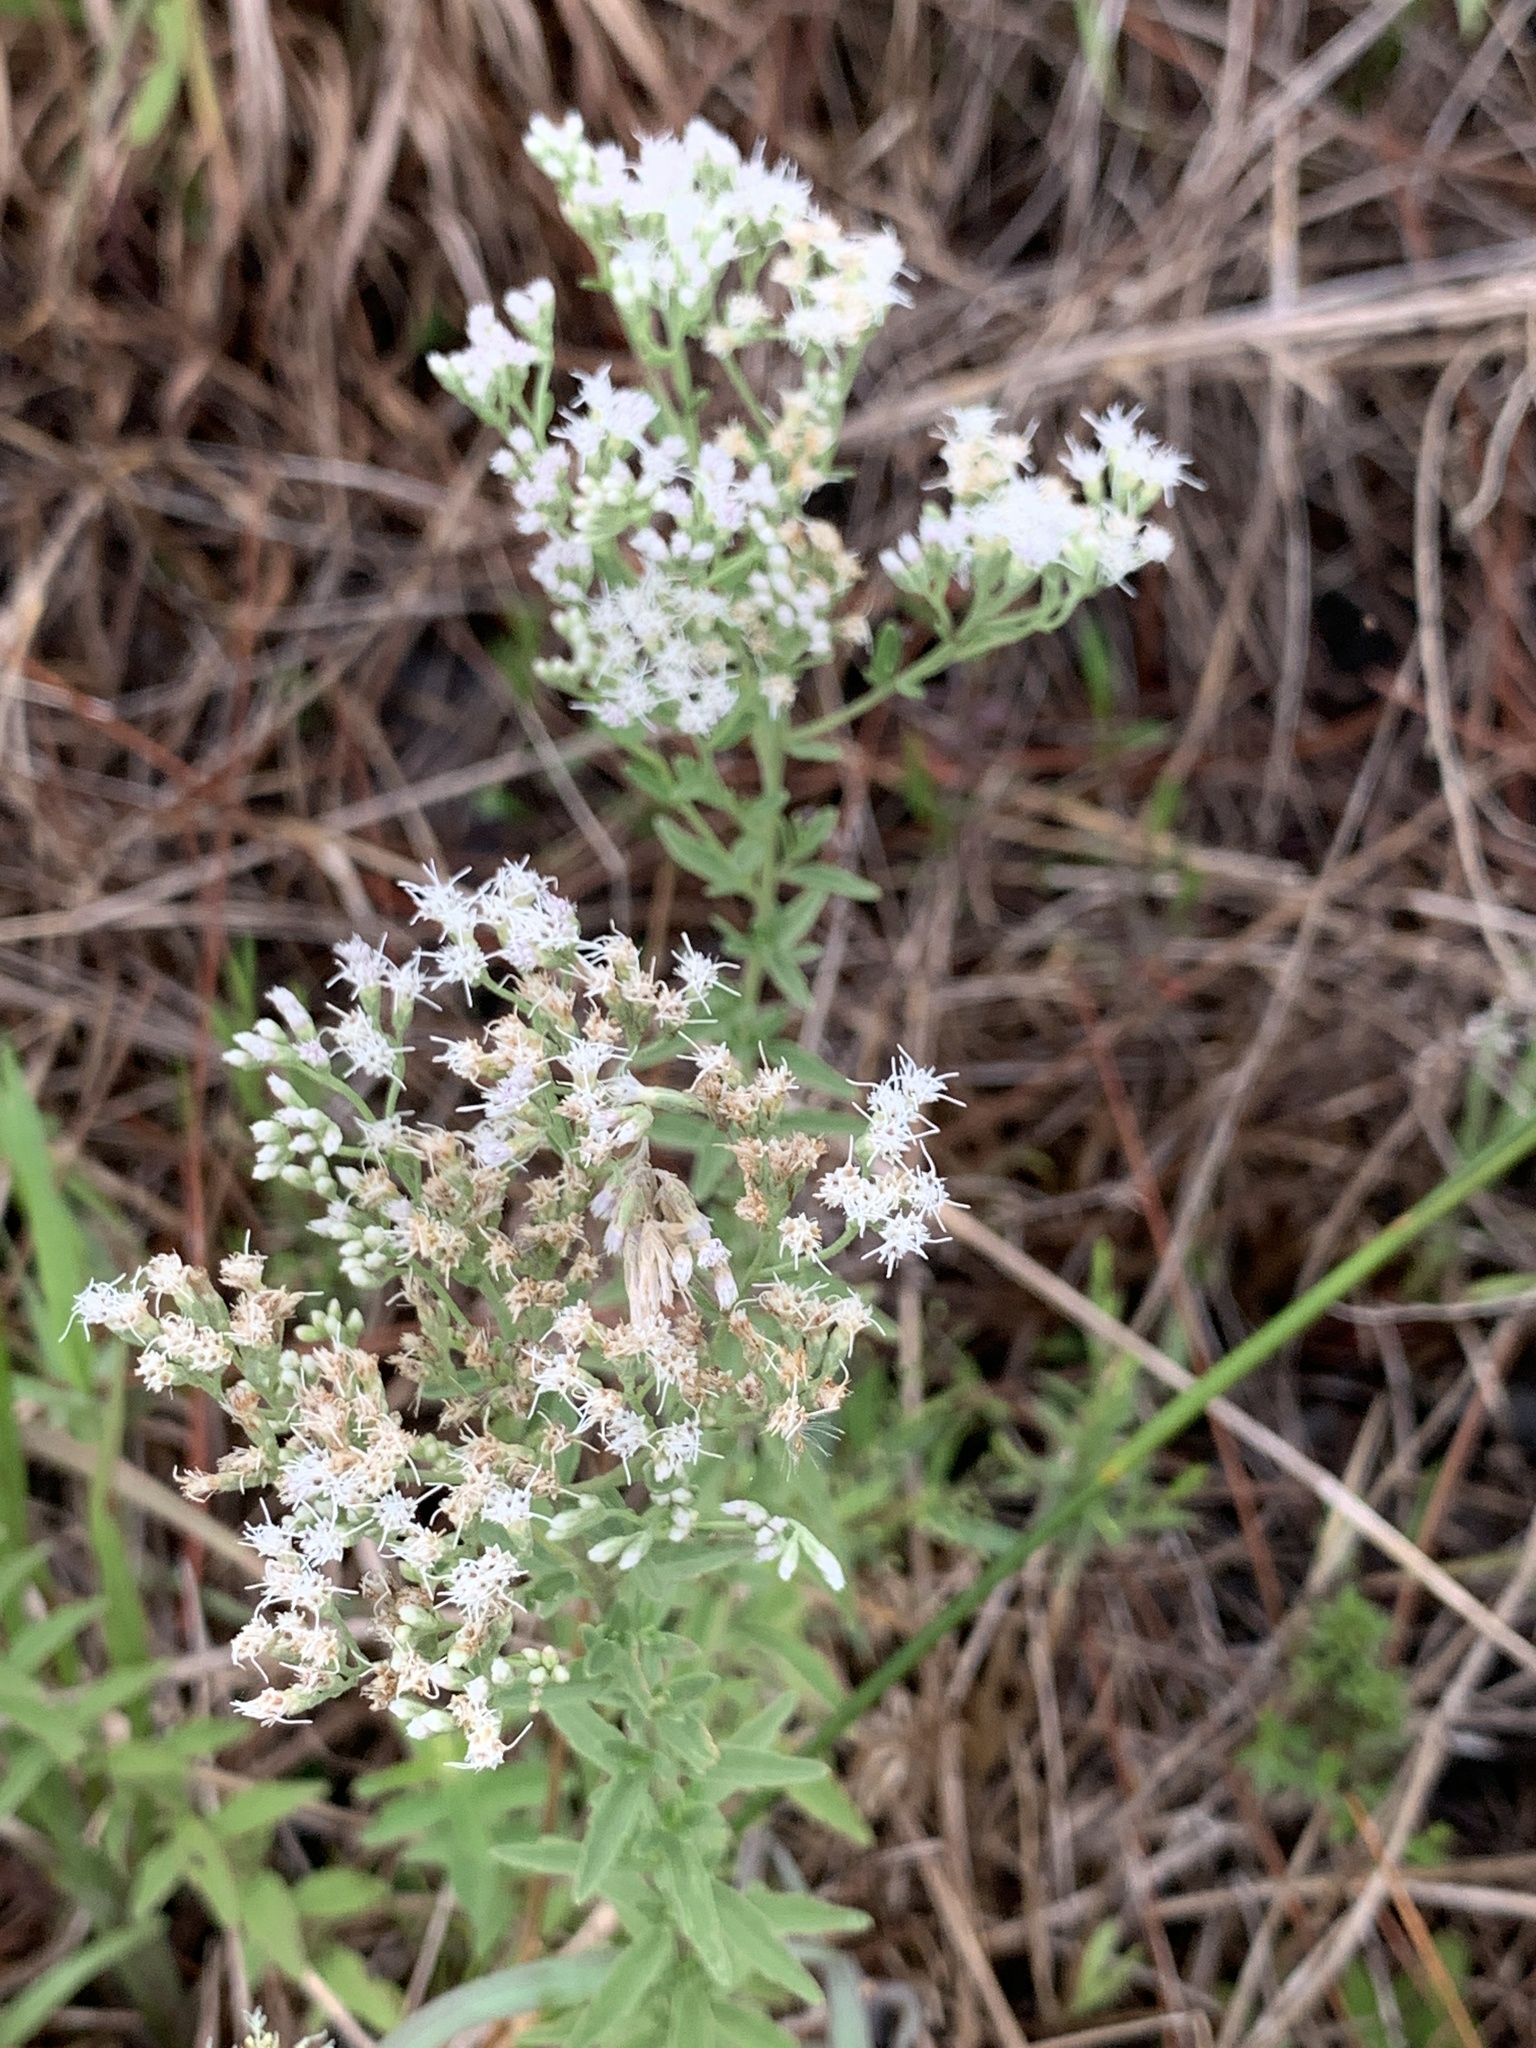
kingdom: Plantae
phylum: Tracheophyta
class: Magnoliopsida
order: Asterales
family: Asteraceae
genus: Eupatorium
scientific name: Eupatorium mohrii
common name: Mohr's thoroughwort
